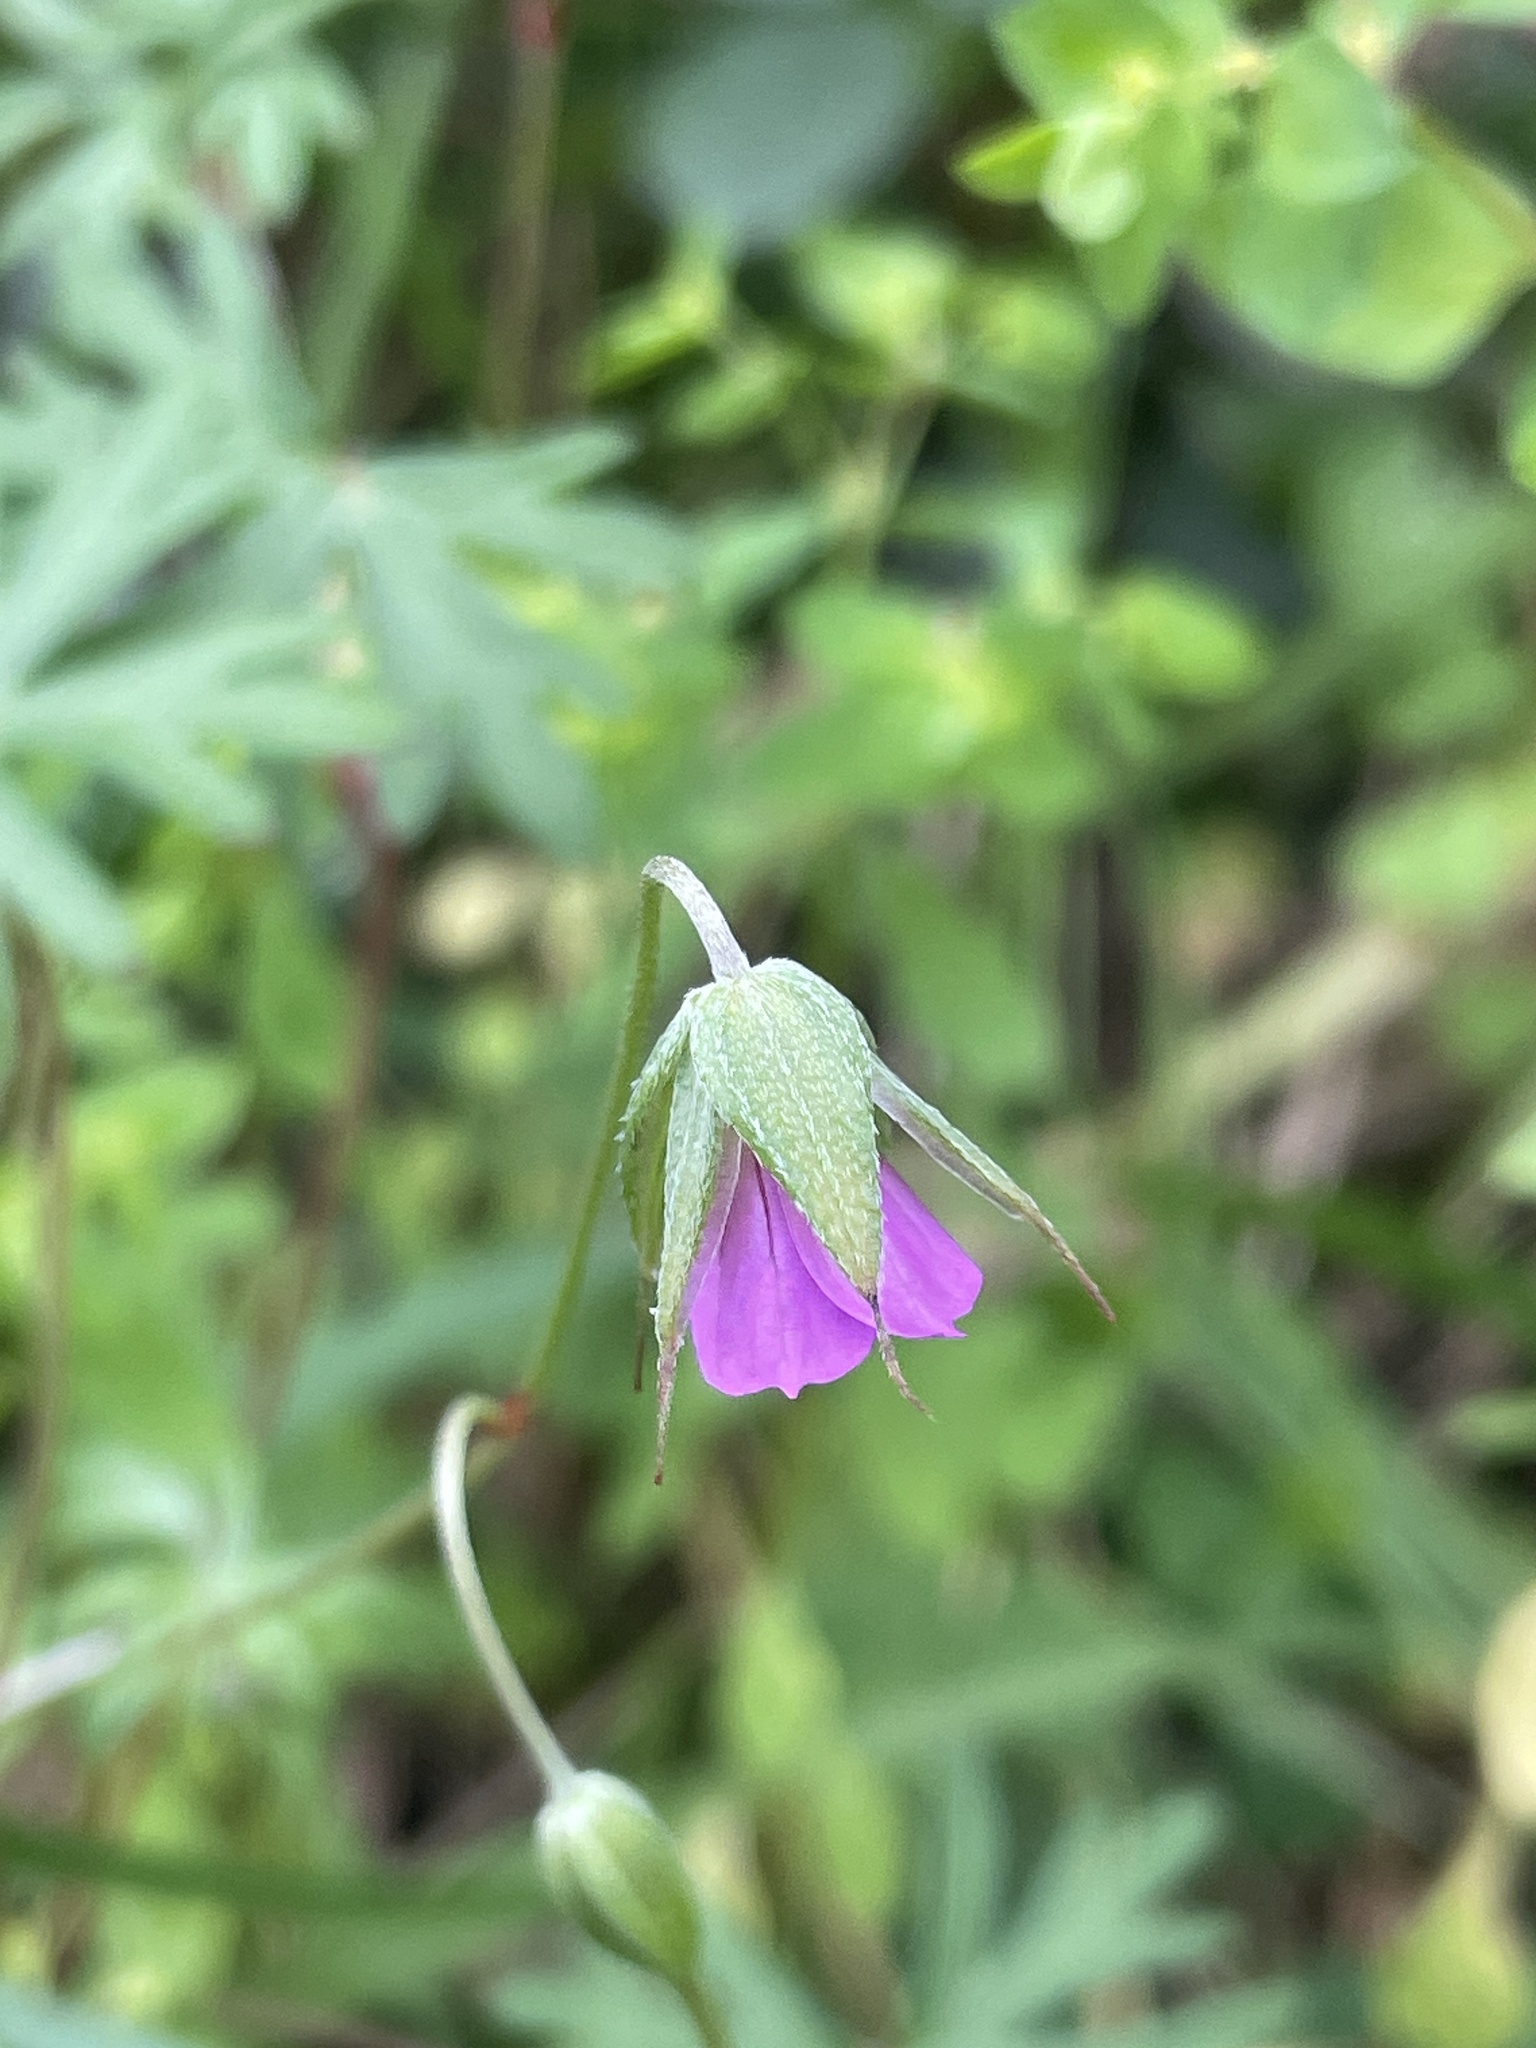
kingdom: Plantae
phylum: Tracheophyta
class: Magnoliopsida
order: Geraniales
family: Geraniaceae
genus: Geranium
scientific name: Geranium columbinum
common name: Long-stalked crane's-bill
